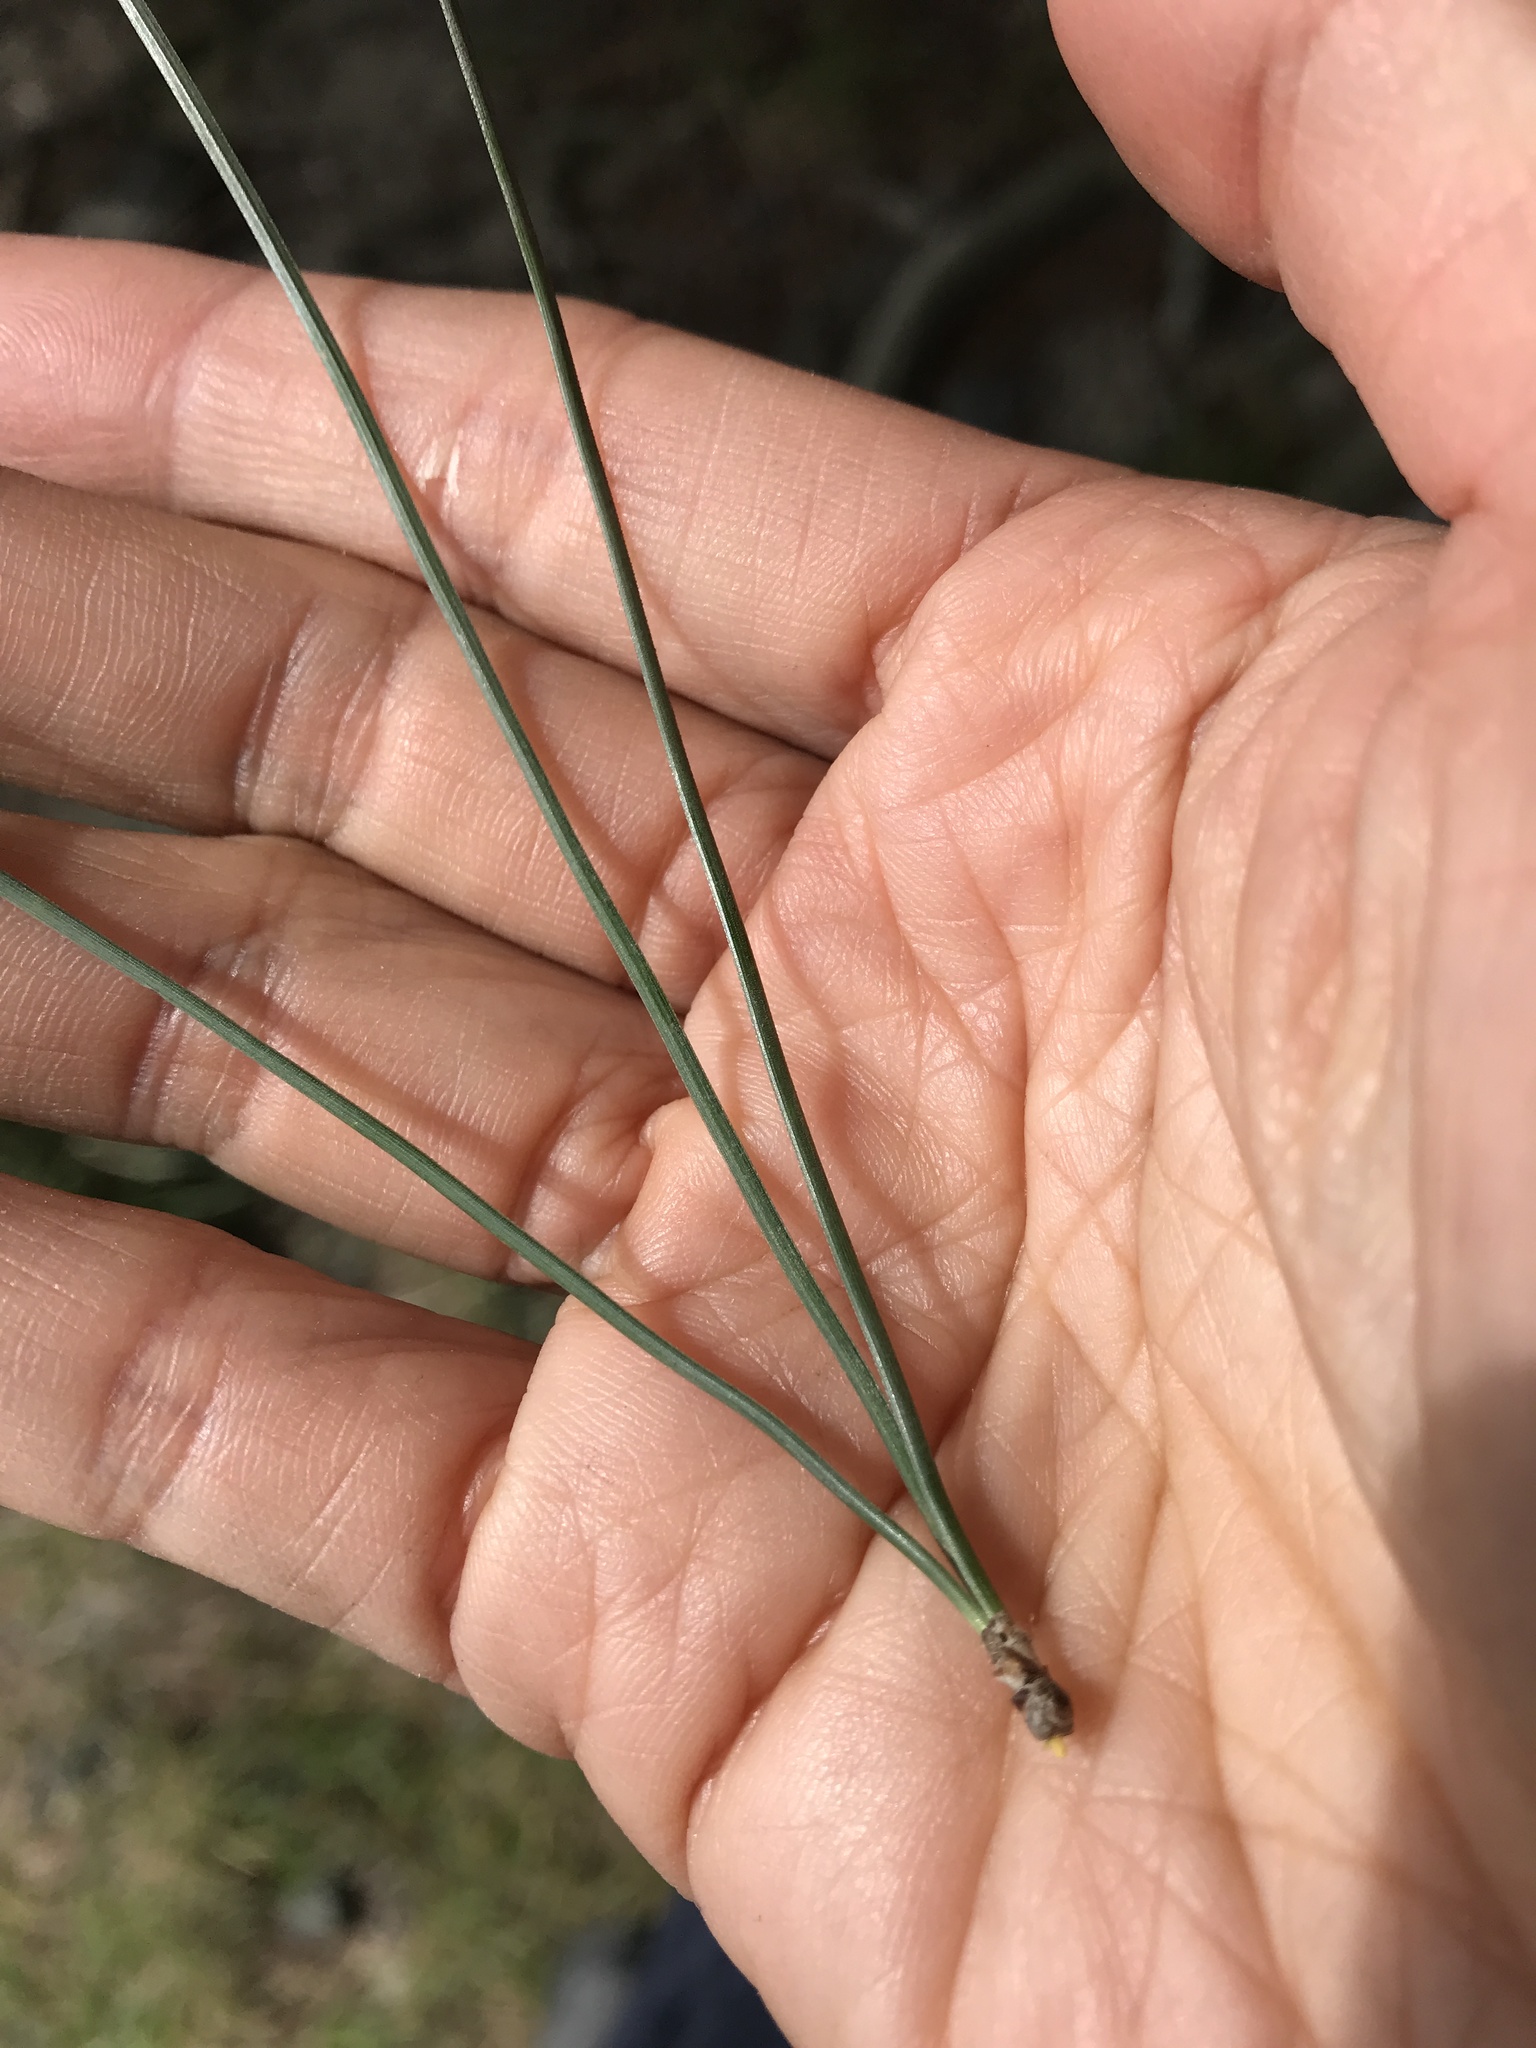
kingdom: Plantae
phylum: Tracheophyta
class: Pinopsida
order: Pinales
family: Pinaceae
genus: Pinus
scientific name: Pinus radiata
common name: Monterey pine
